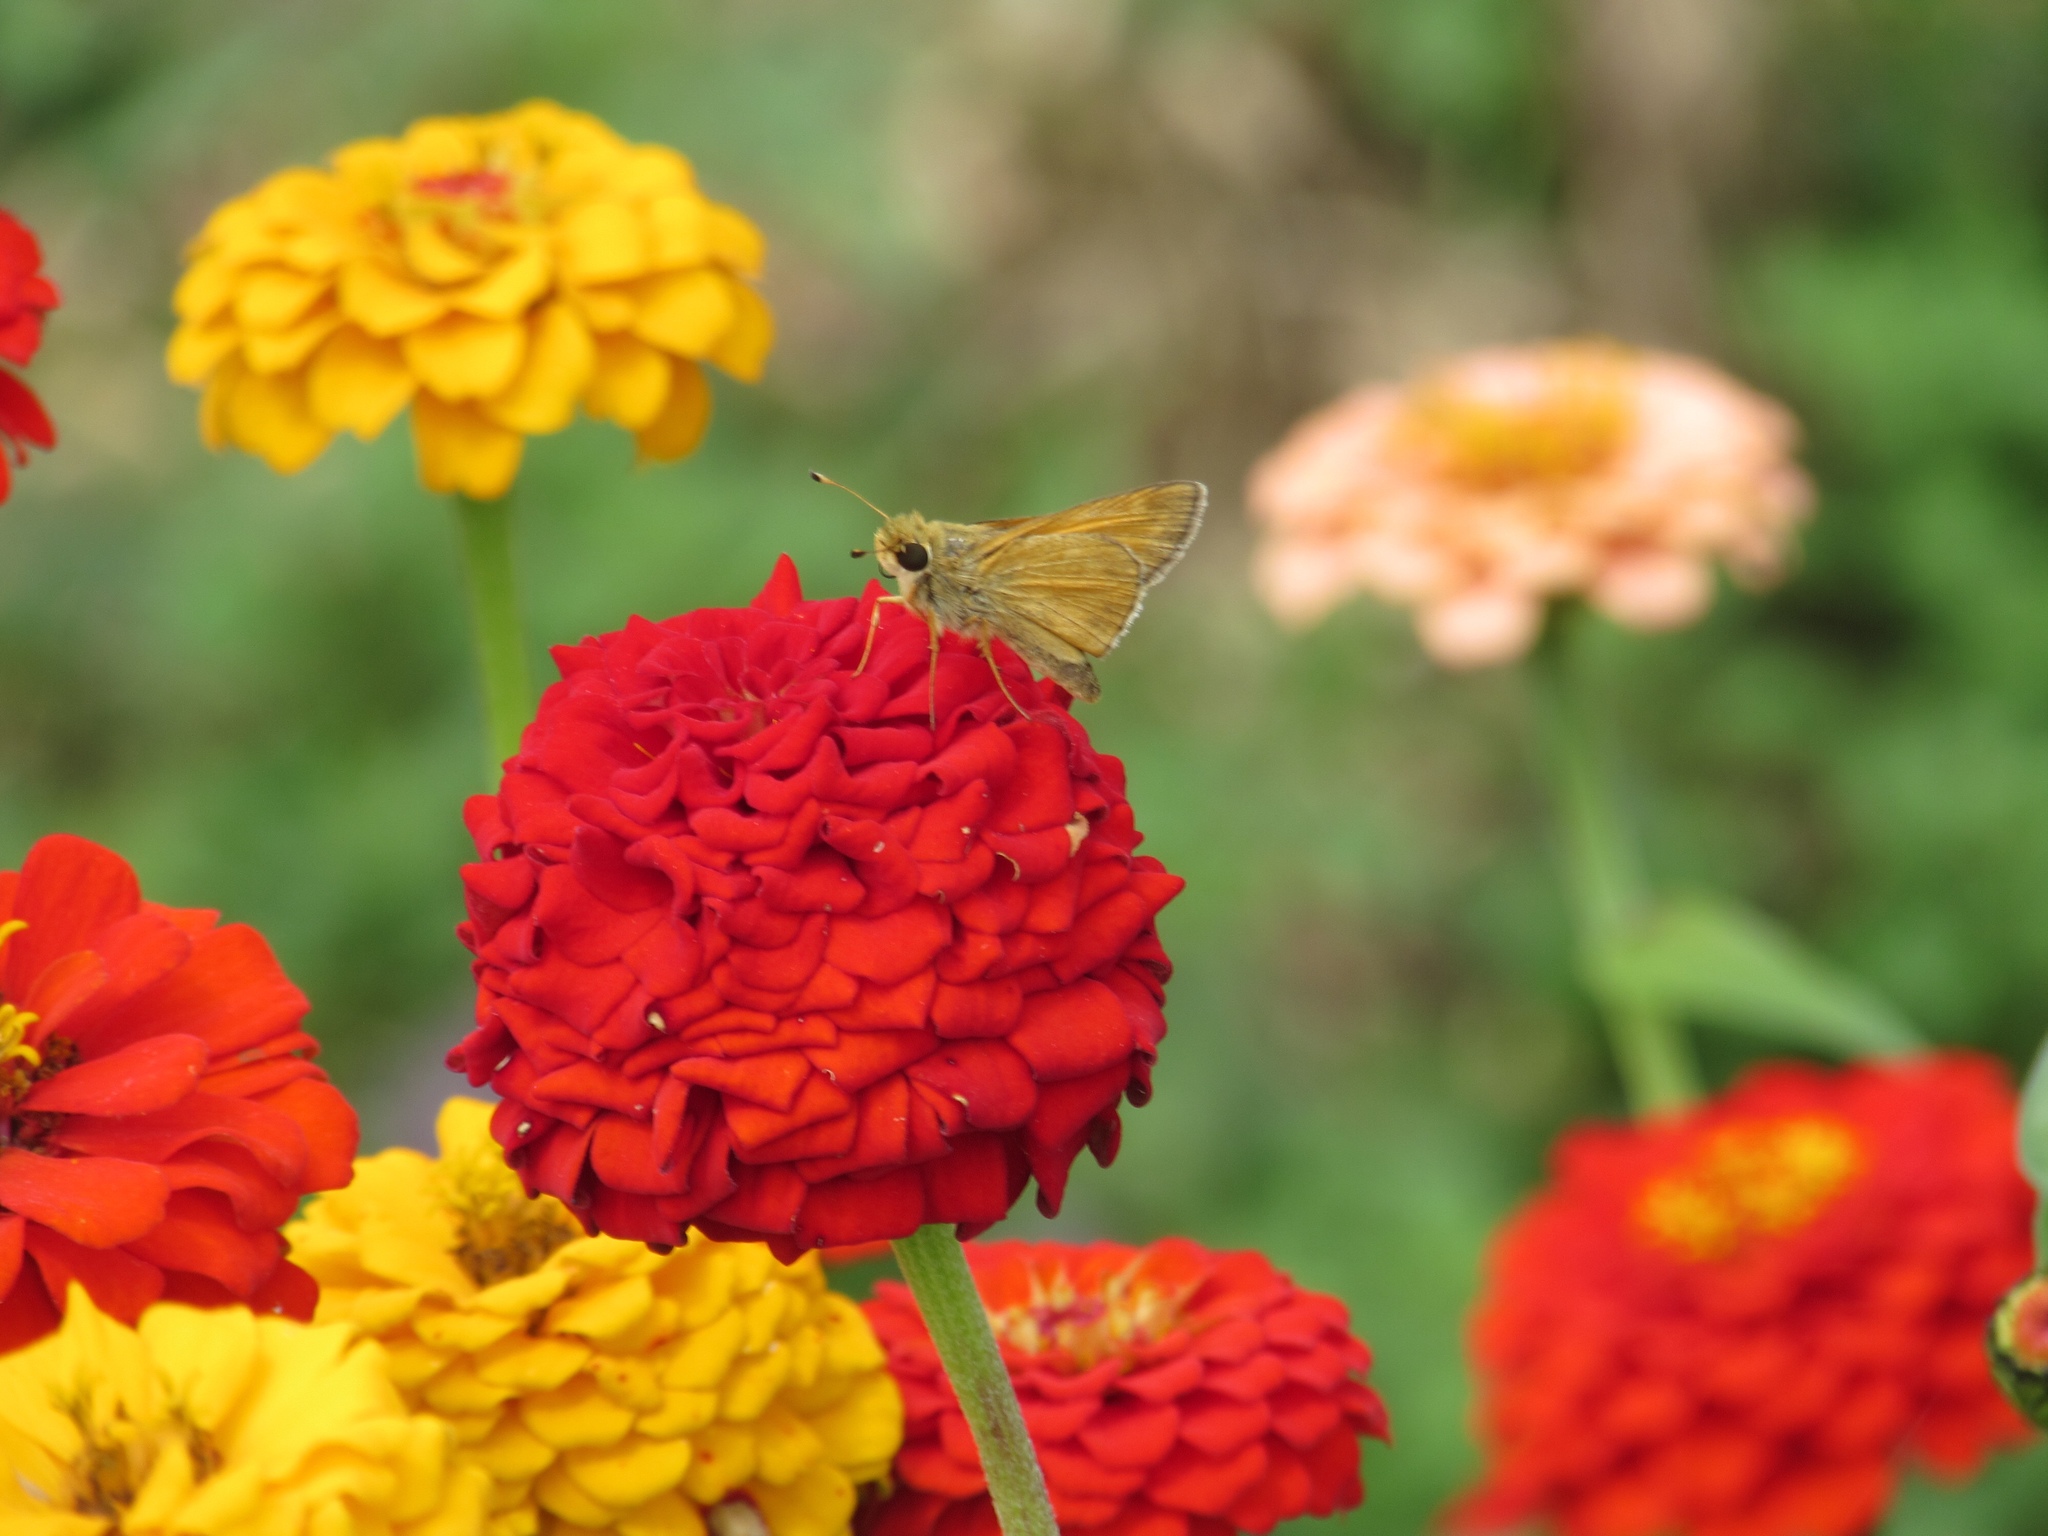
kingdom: Animalia
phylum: Arthropoda
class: Insecta
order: Lepidoptera
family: Hesperiidae
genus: Atalopedes
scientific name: Atalopedes
